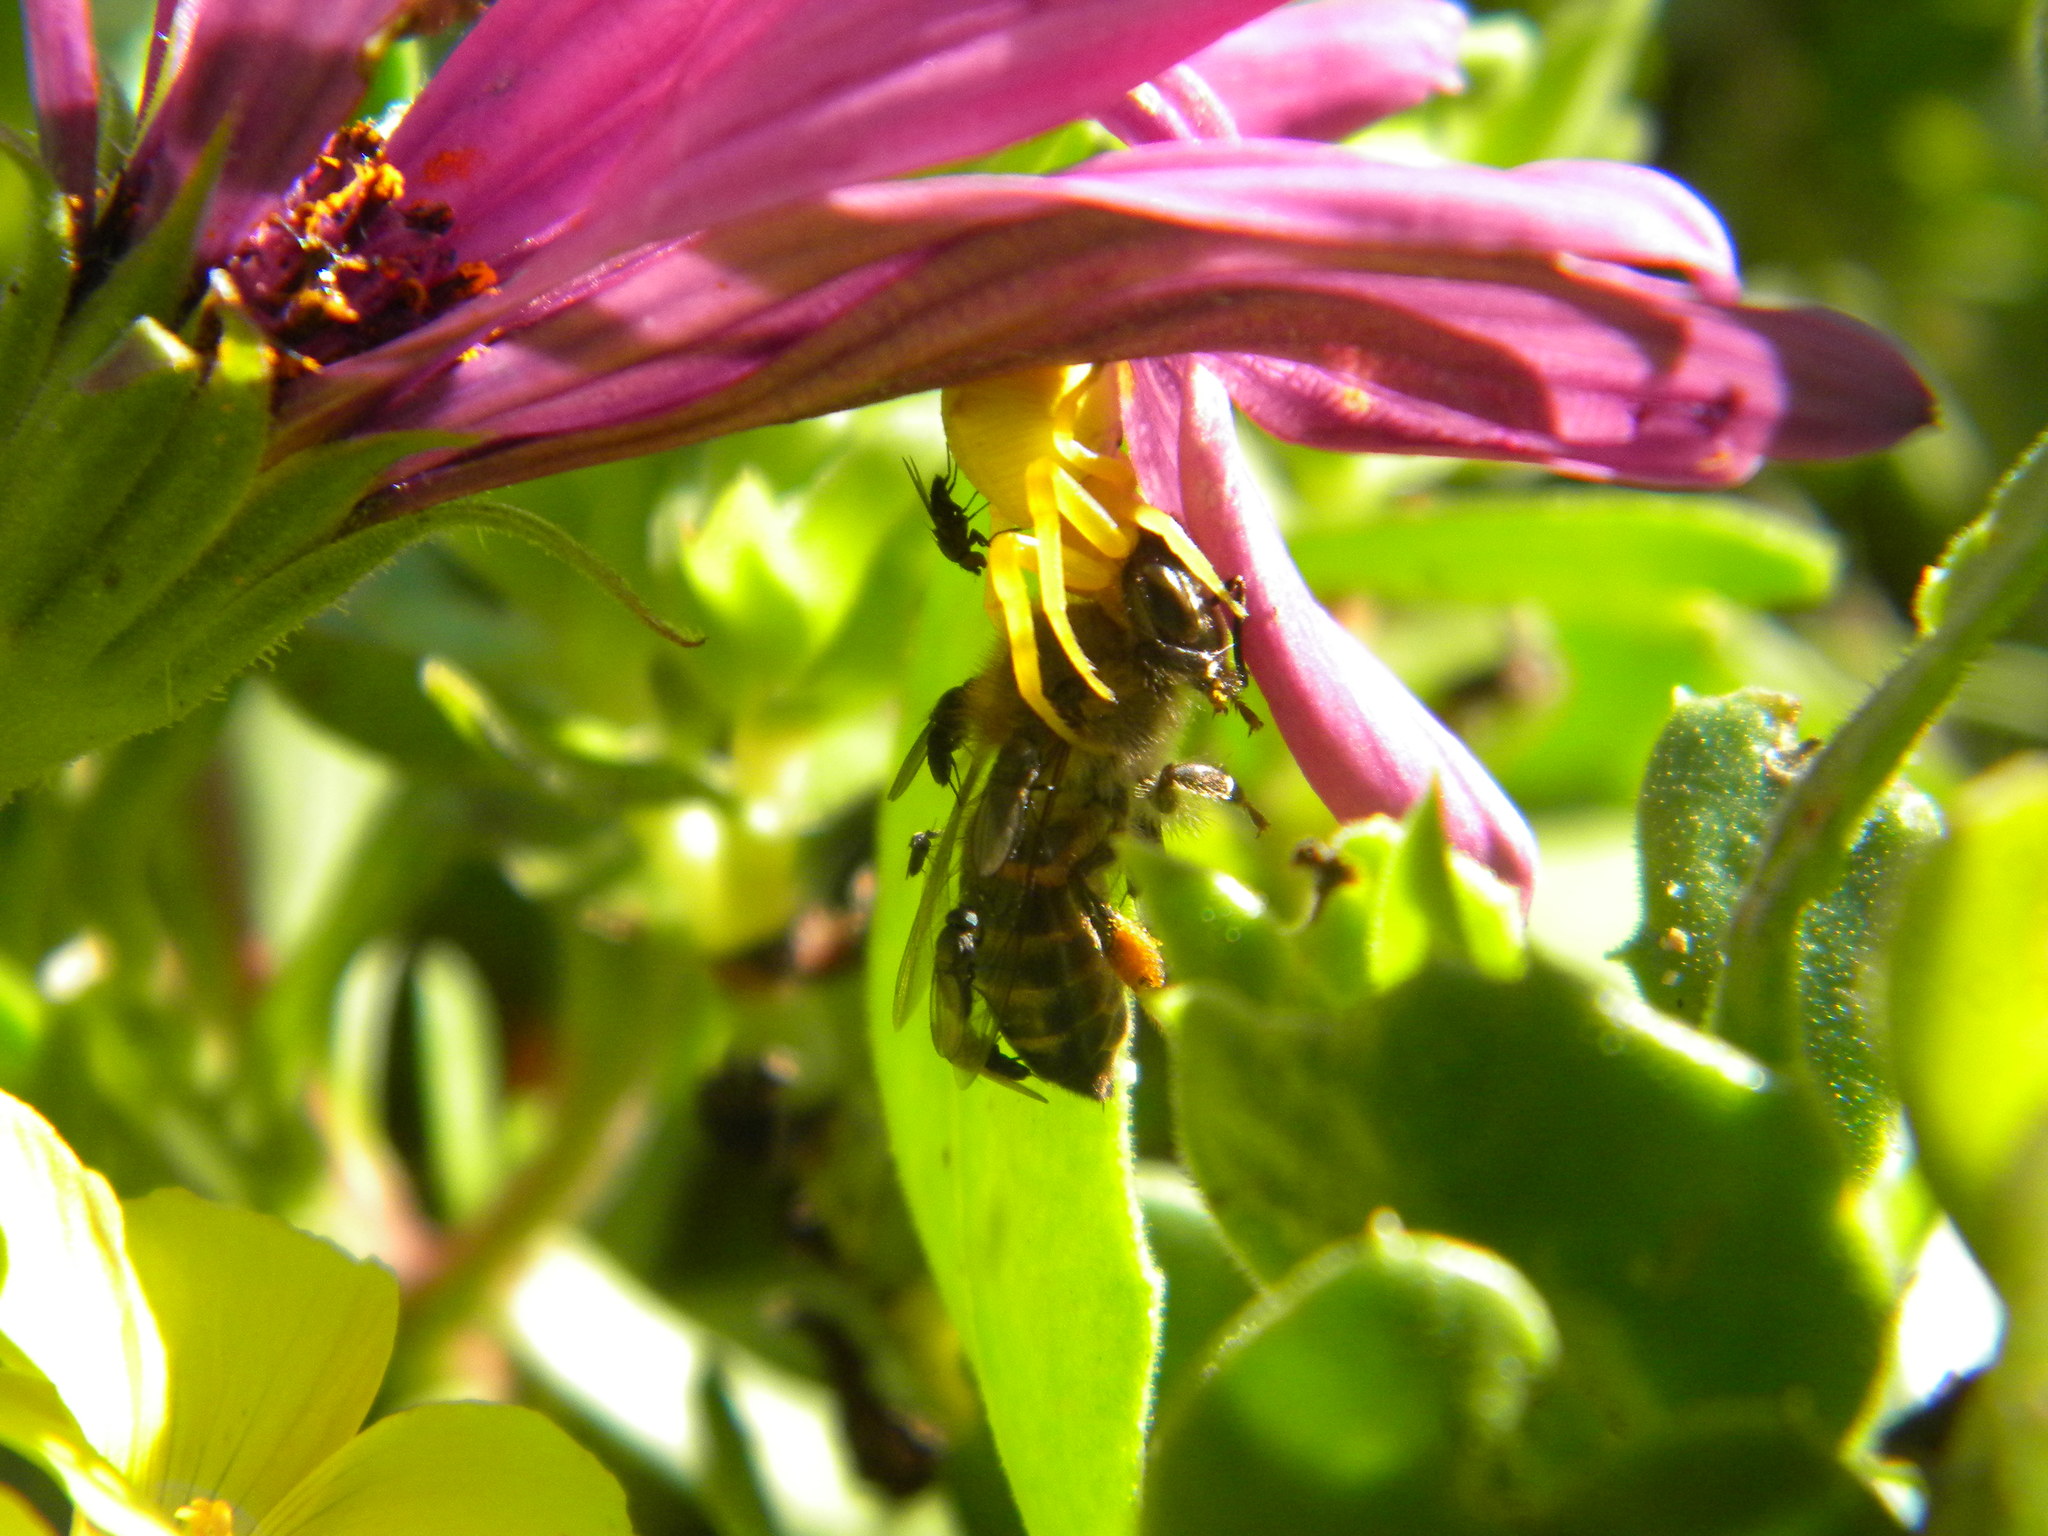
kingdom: Animalia
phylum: Arthropoda
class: Insecta
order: Hymenoptera
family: Apidae
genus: Apis
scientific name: Apis mellifera
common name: Honey bee
